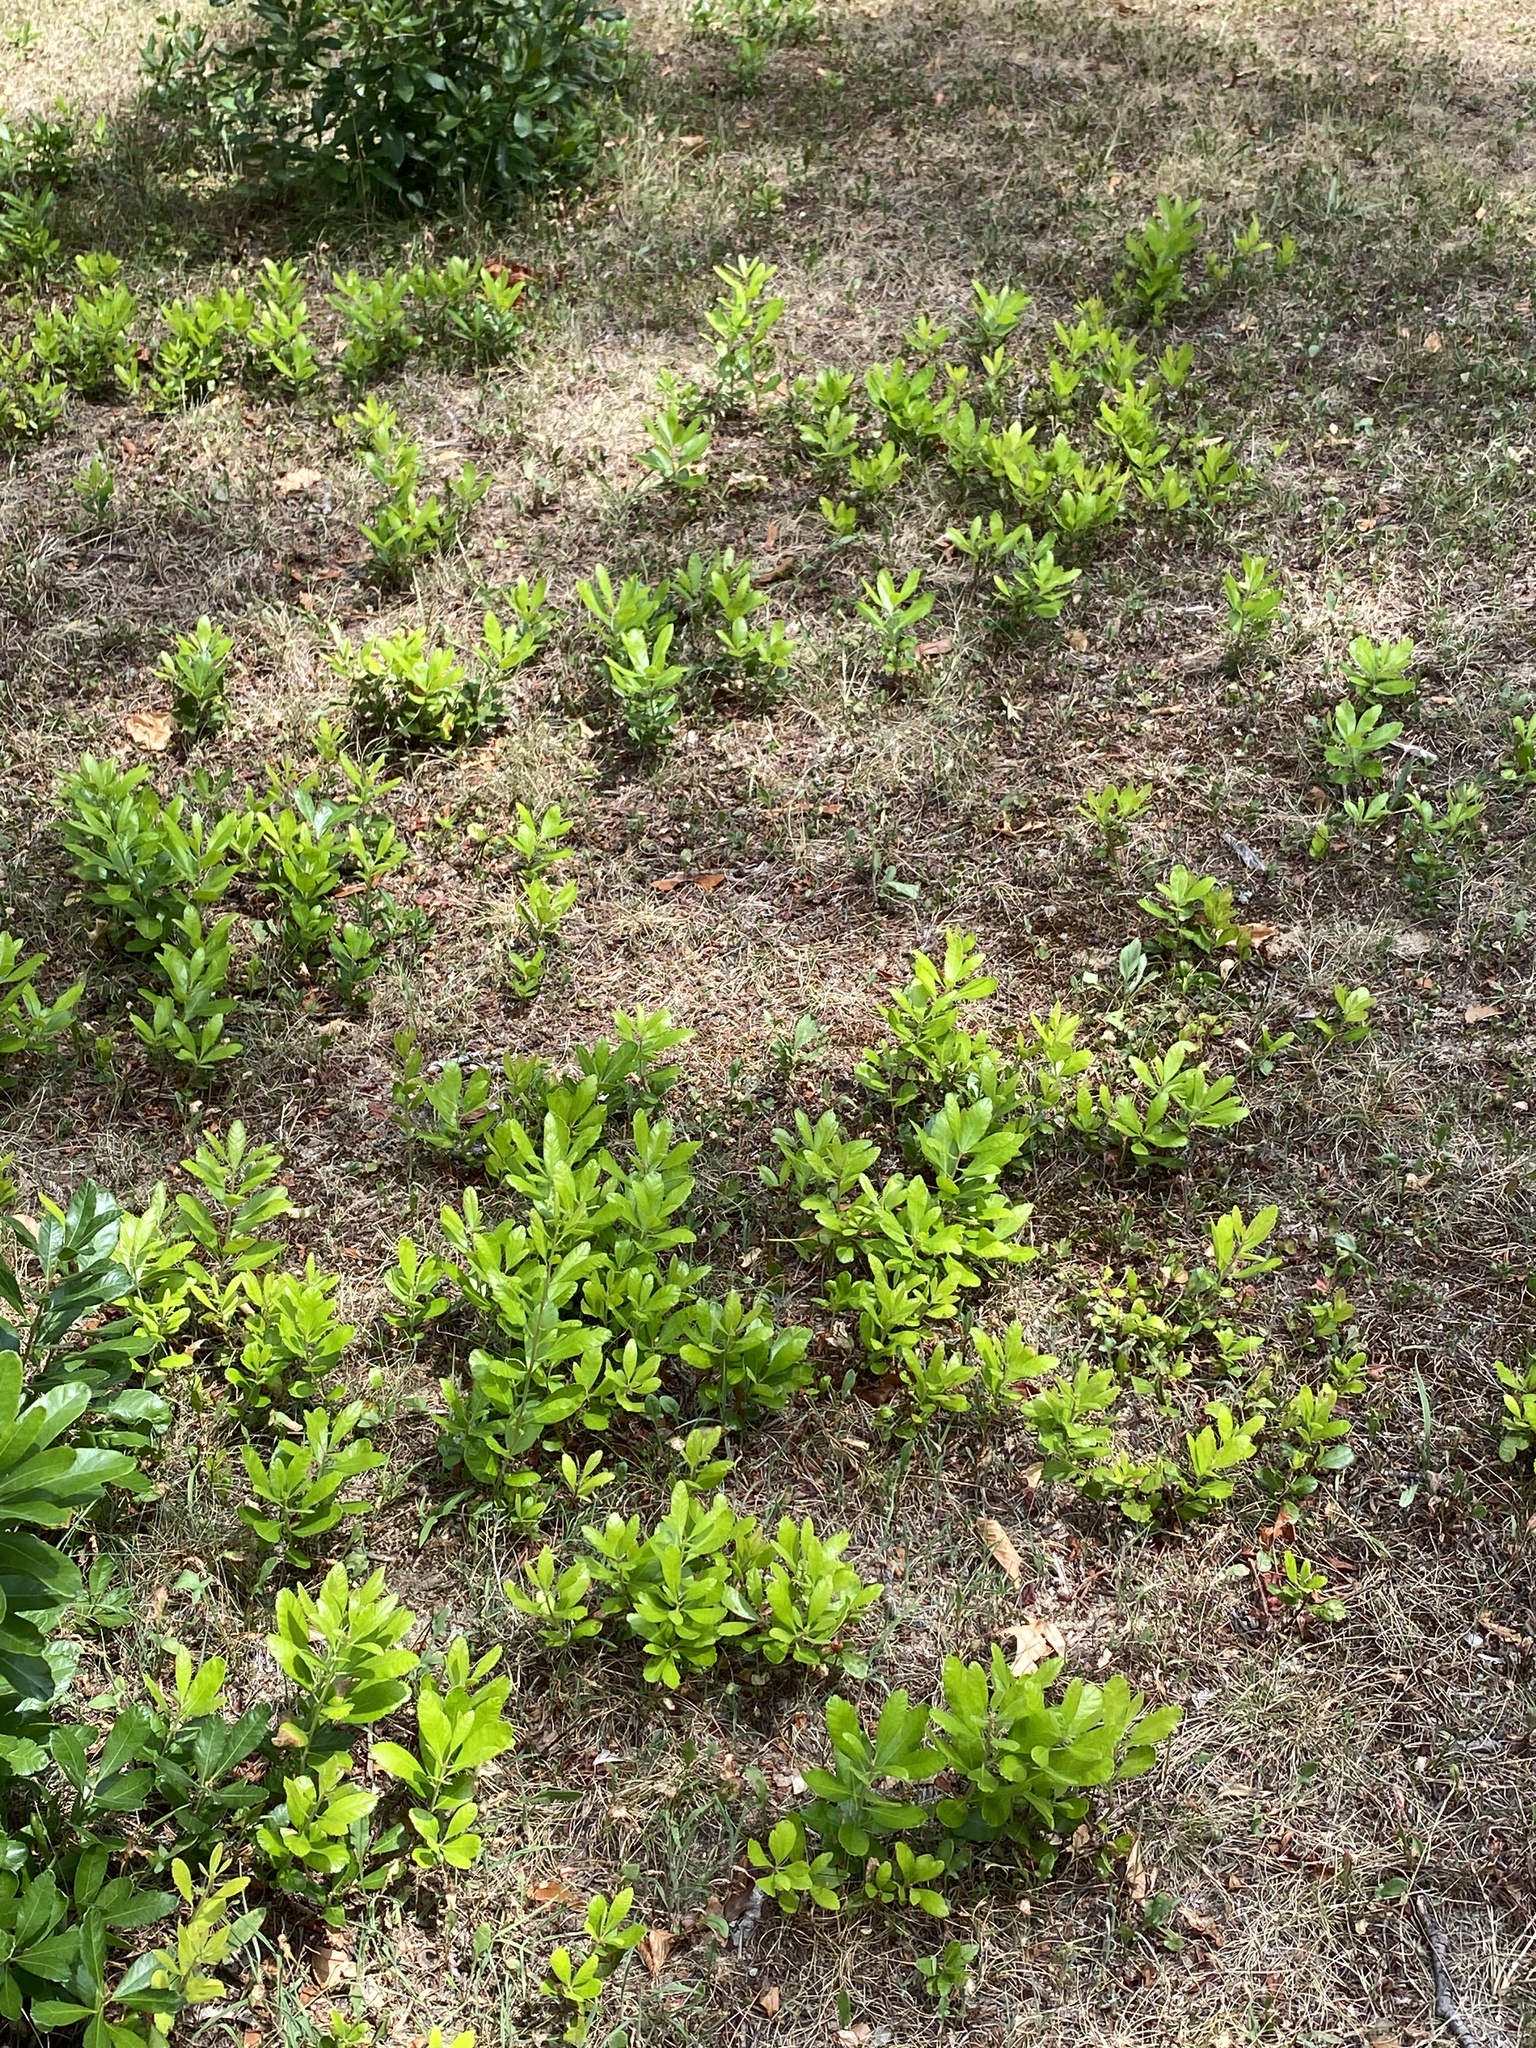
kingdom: Plantae
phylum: Tracheophyta
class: Magnoliopsida
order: Fagales
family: Myricaceae
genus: Morella
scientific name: Morella pensylvanica
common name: Northern bayberry
